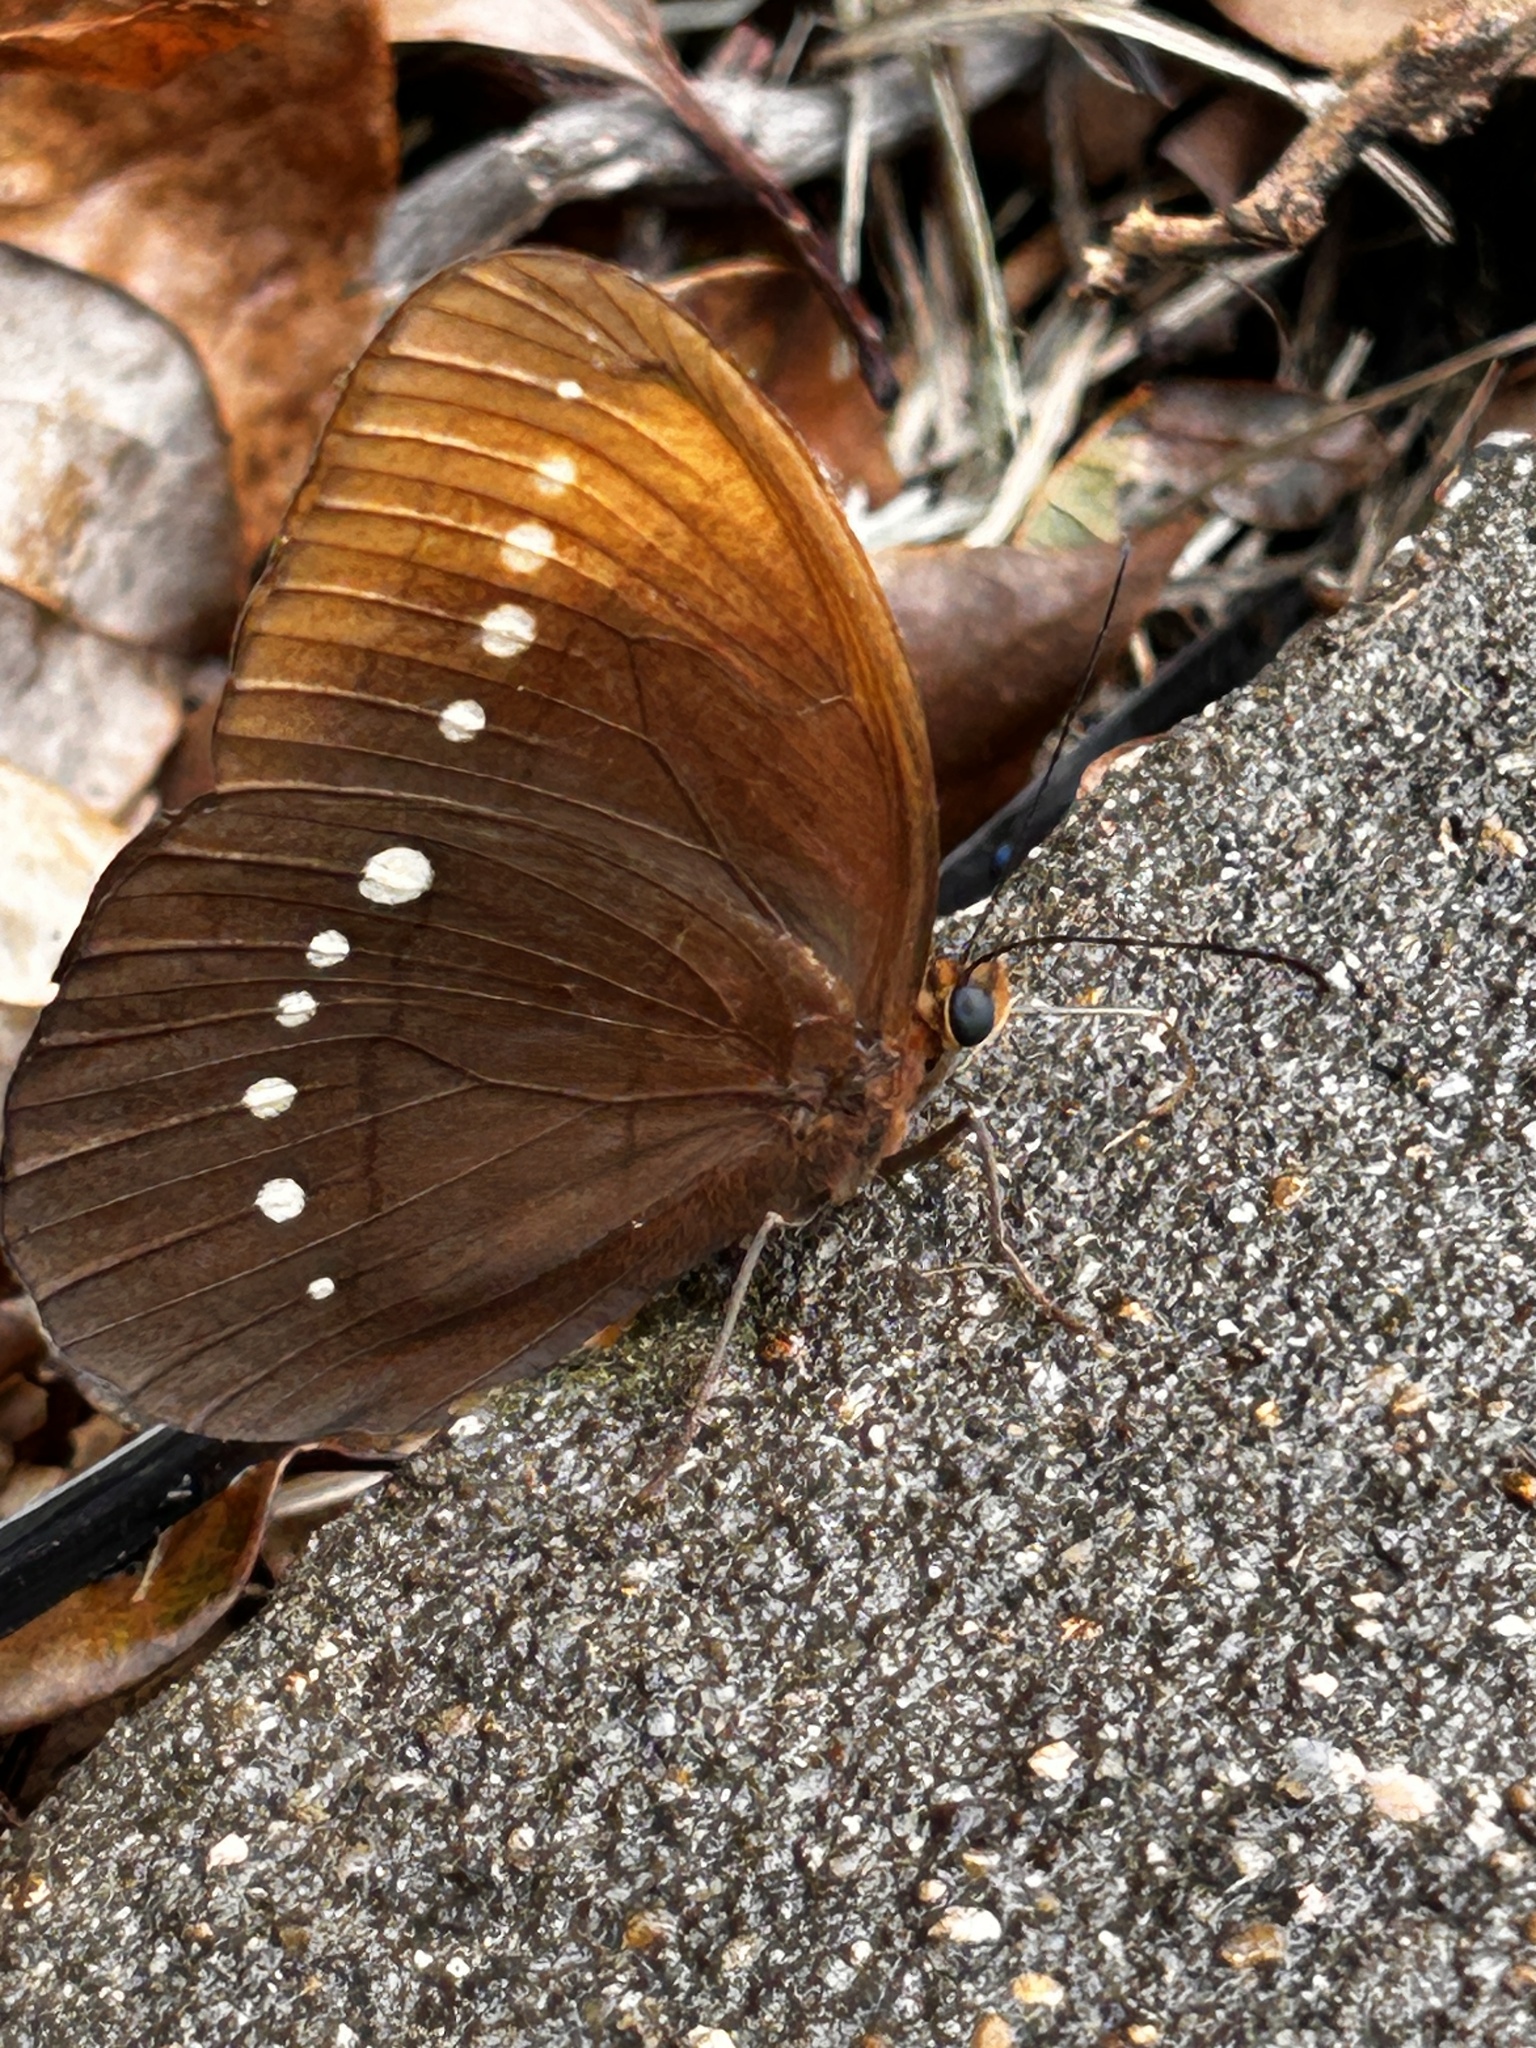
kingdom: Animalia
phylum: Arthropoda
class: Insecta
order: Lepidoptera
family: Nymphalidae
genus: Faunis
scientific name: Faunis eumeus
